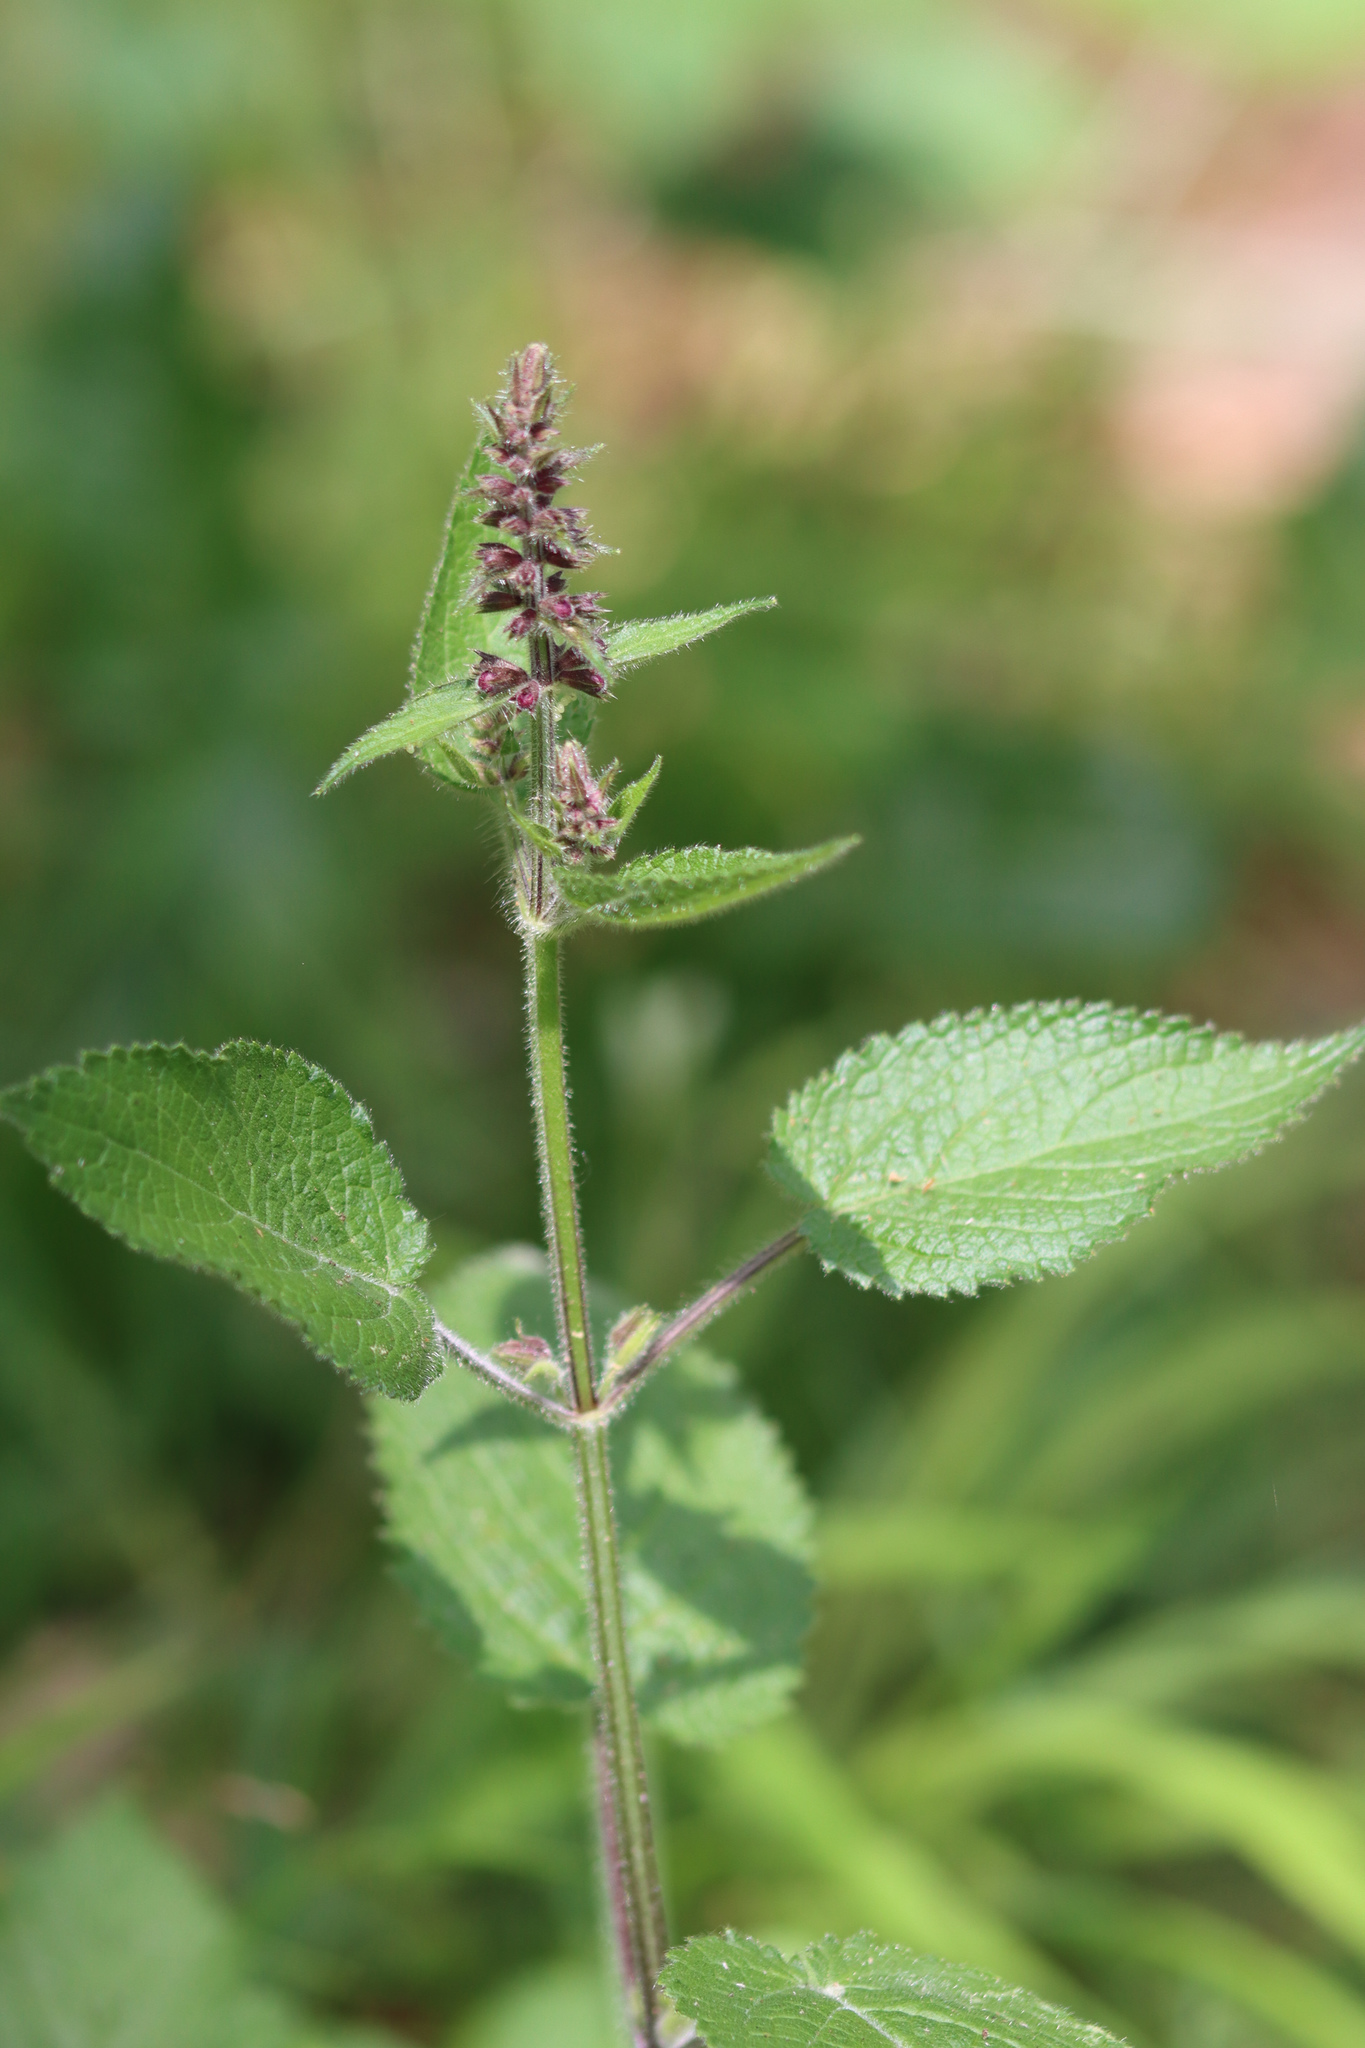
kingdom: Plantae
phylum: Tracheophyta
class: Magnoliopsida
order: Lamiales
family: Lamiaceae
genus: Stachys
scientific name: Stachys sylvatica
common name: Hedge woundwort
